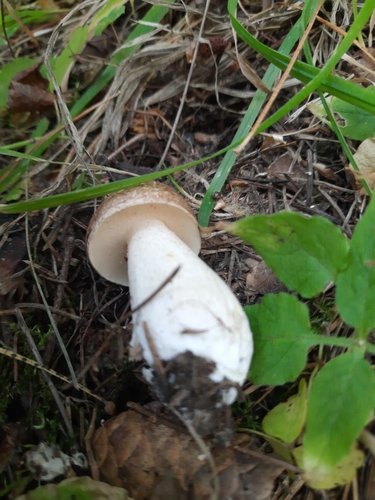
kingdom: Fungi
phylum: Basidiomycota
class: Agaricomycetes
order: Boletales
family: Suillaceae
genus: Suillus
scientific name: Suillus placidus
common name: Slippery white bolete
